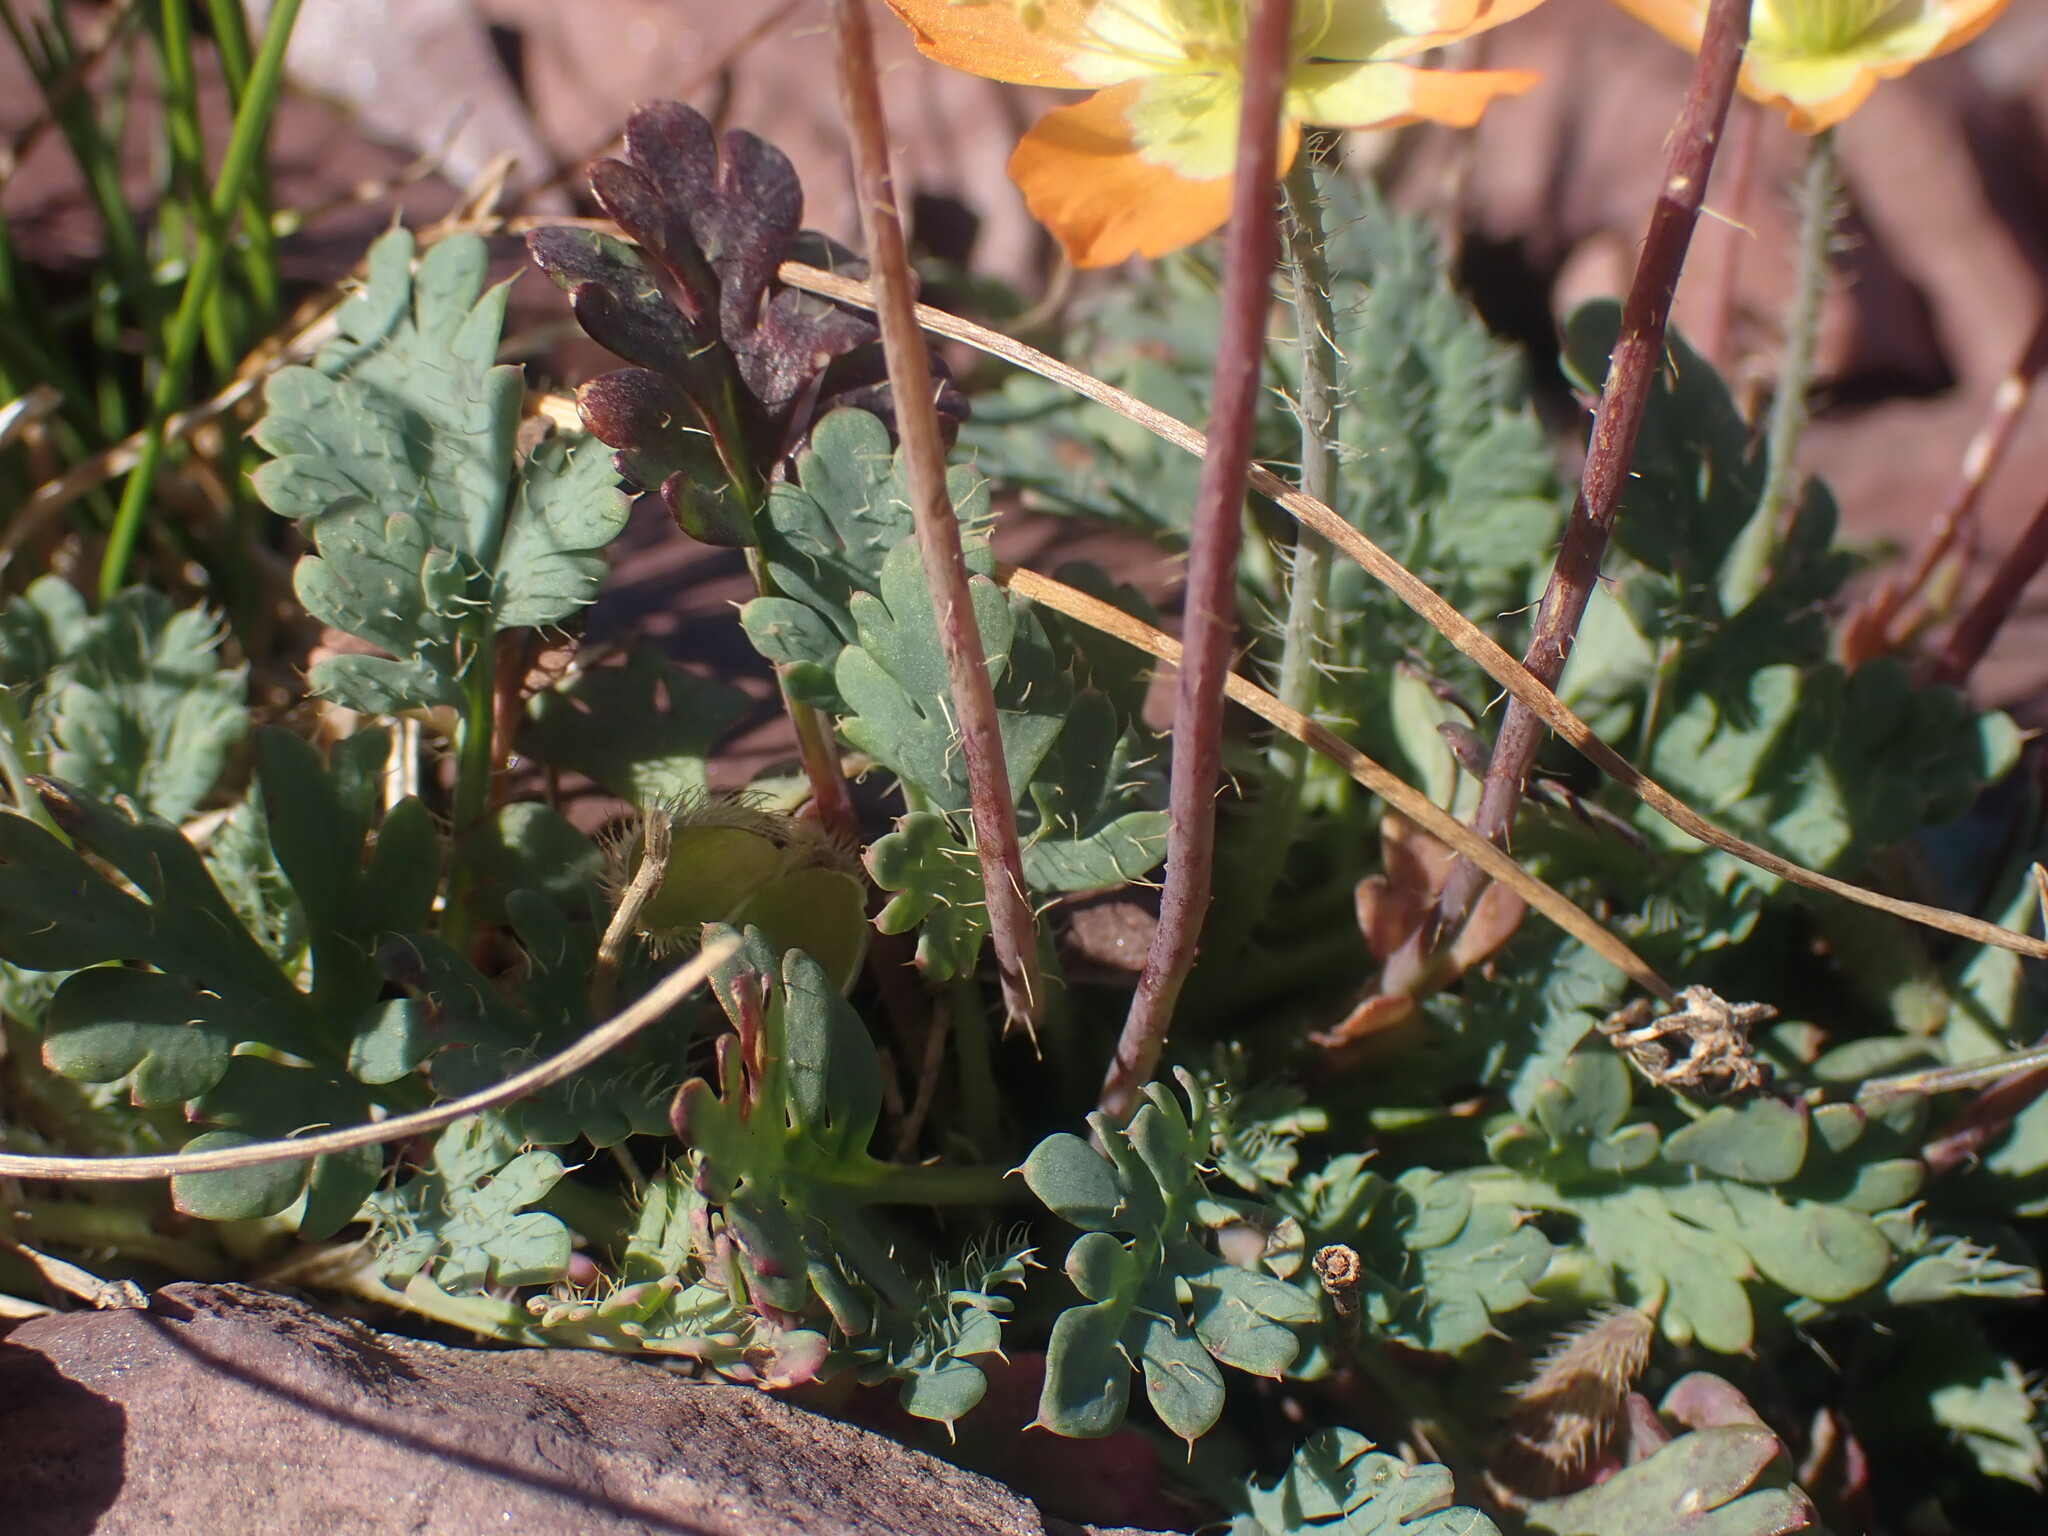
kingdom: Plantae
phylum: Tracheophyta
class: Magnoliopsida
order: Ranunculales
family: Papaveraceae
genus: Papaver
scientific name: Papaver pygmaeum
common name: Alpine glacier poppy
